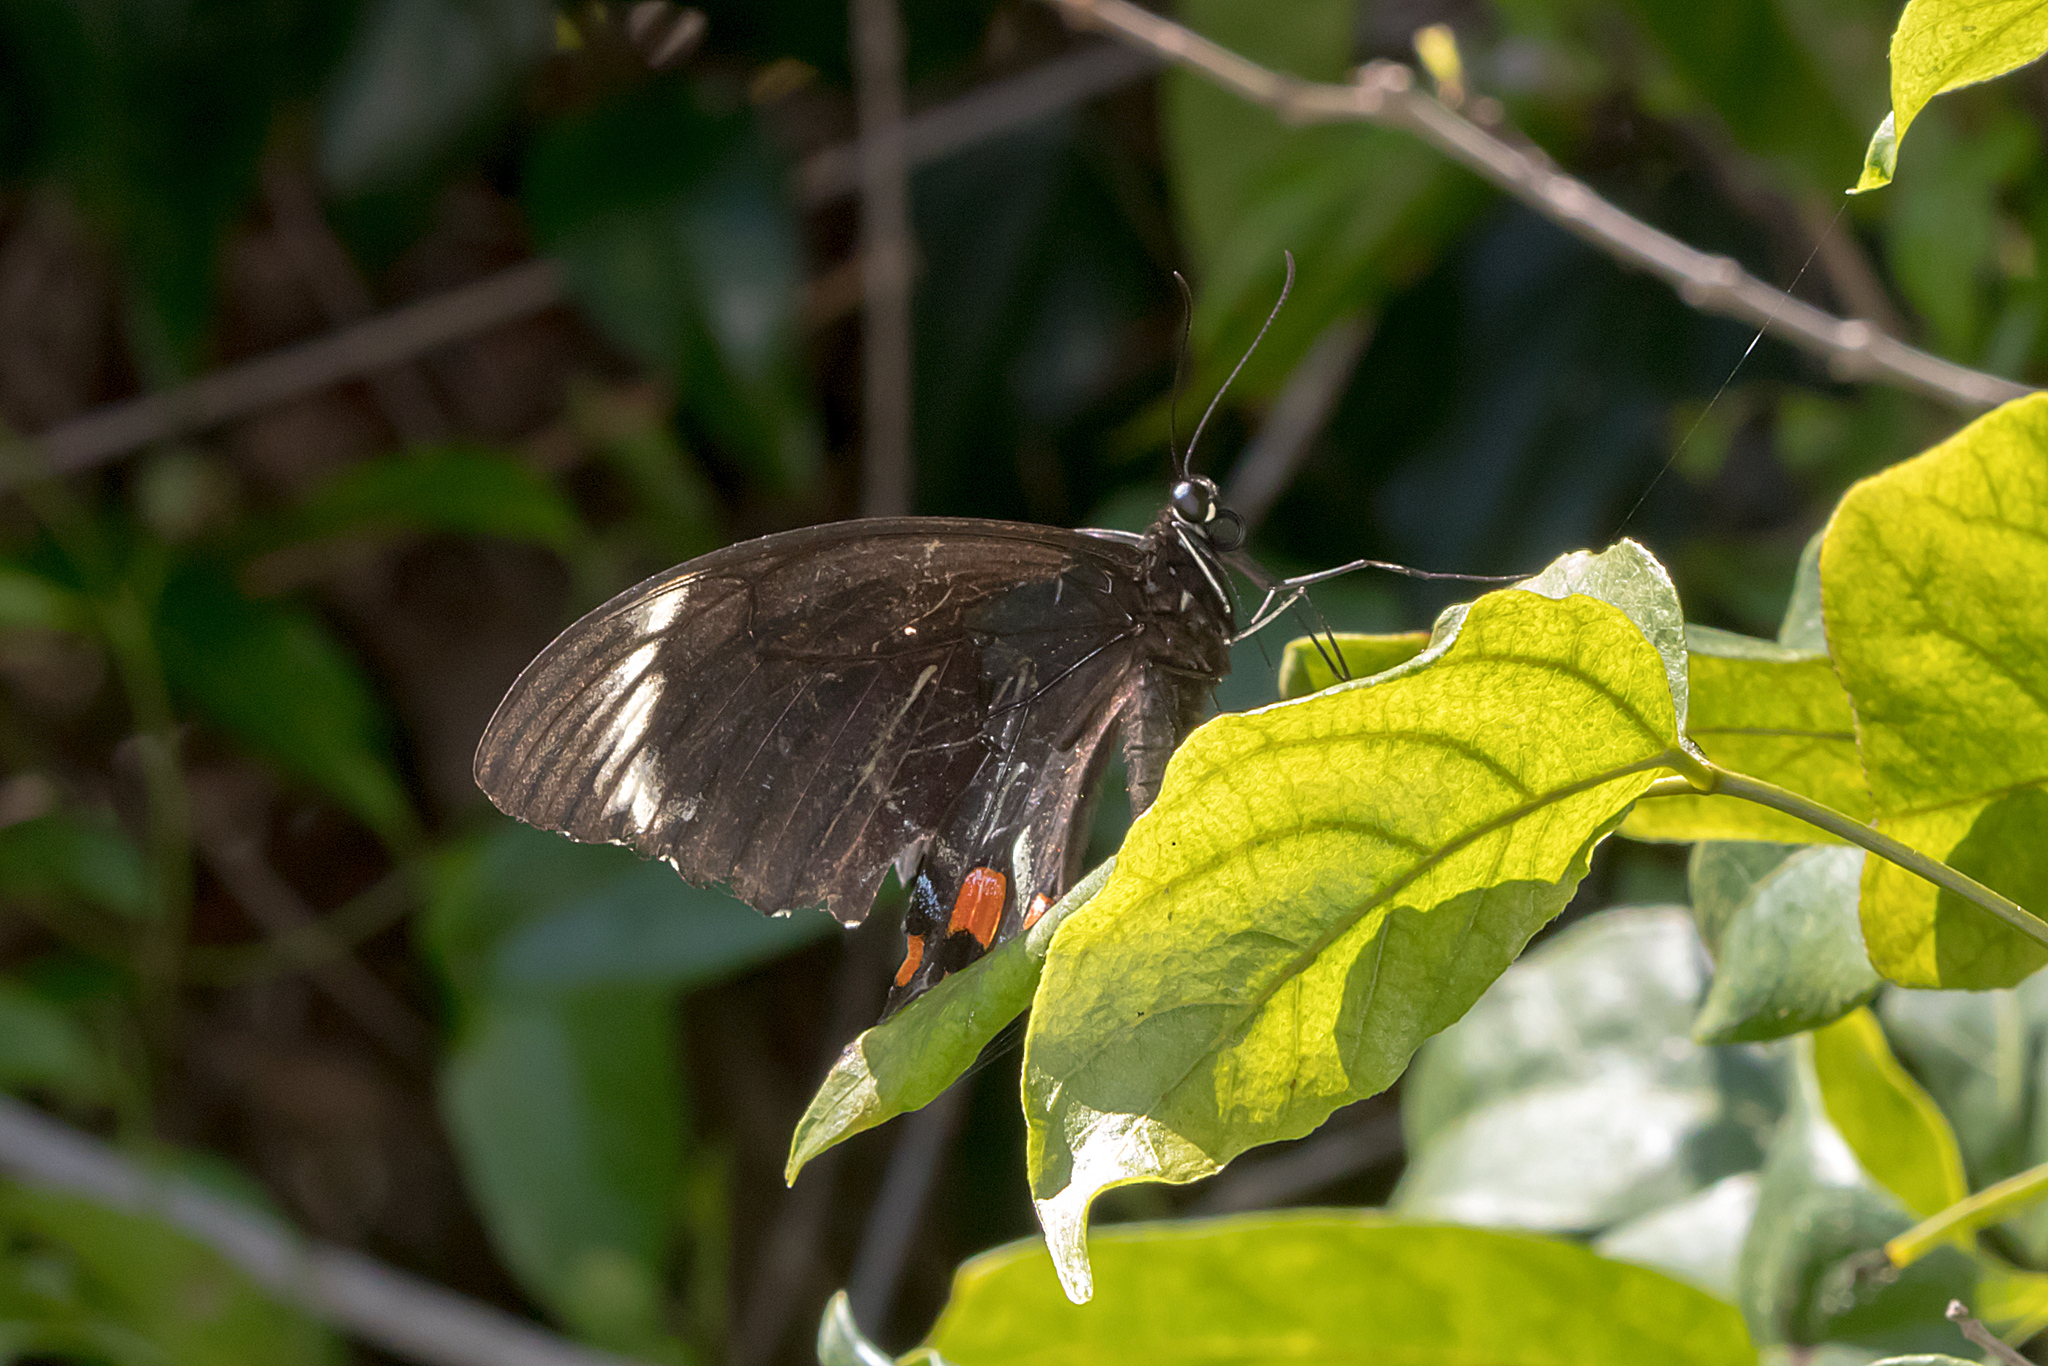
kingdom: Animalia
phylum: Arthropoda
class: Insecta
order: Lepidoptera
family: Papilionidae
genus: Papilio
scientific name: Papilio aegeus
